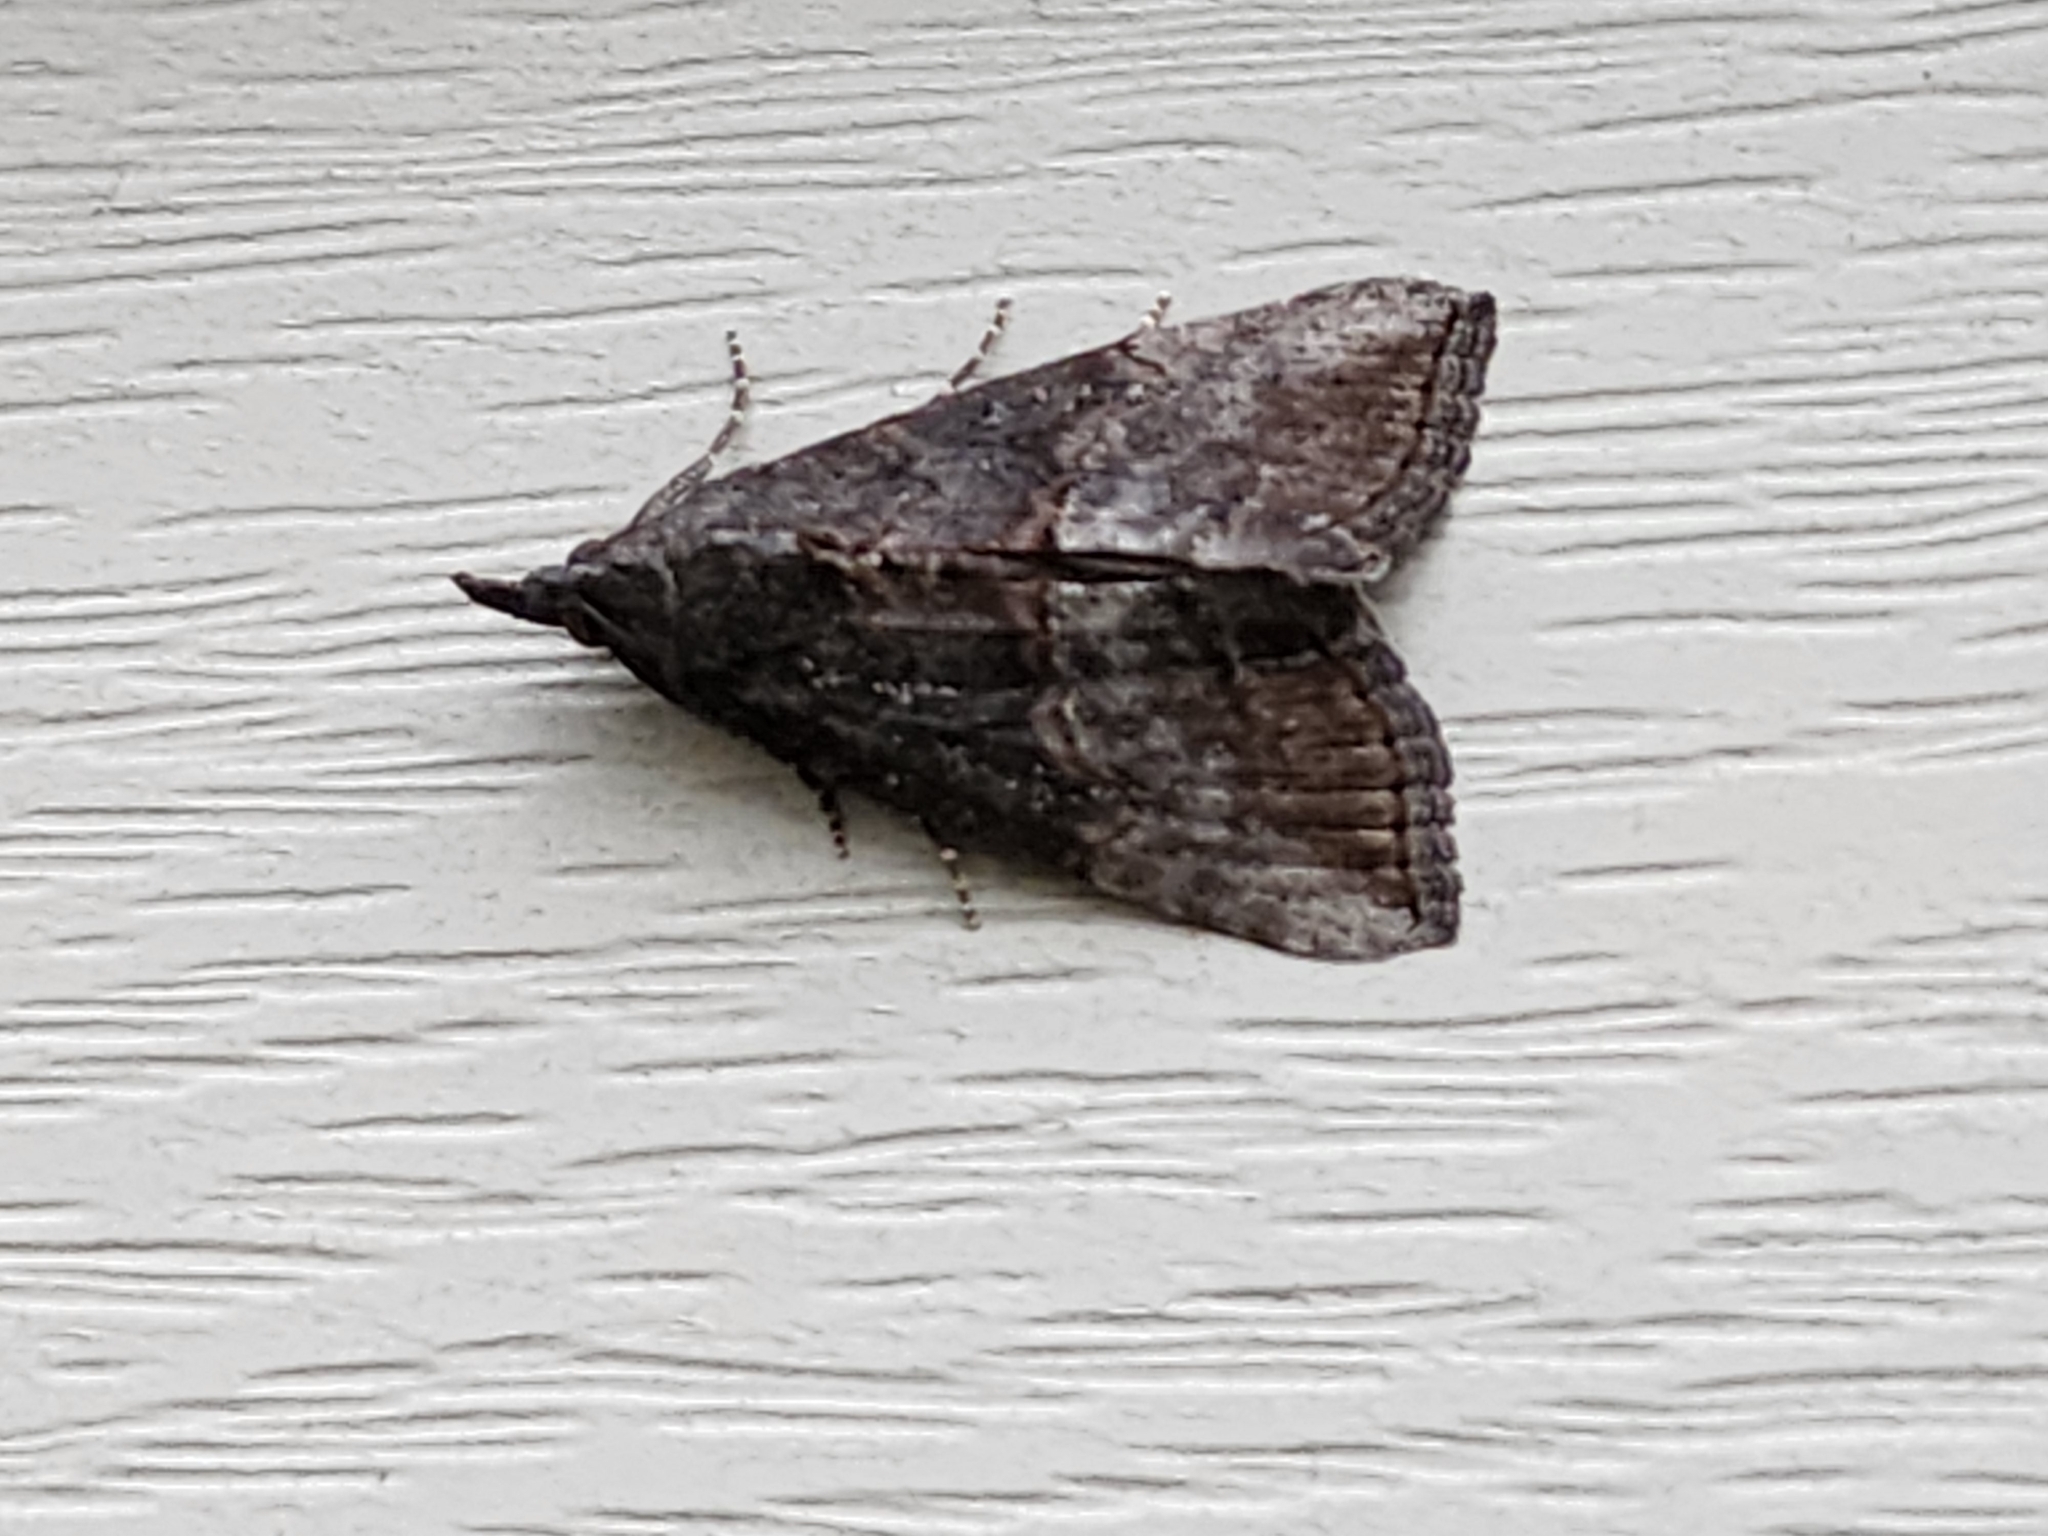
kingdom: Animalia
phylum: Arthropoda
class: Insecta
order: Lepidoptera
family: Erebidae
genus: Hypena
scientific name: Hypena scabra
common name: Green cloverworm
